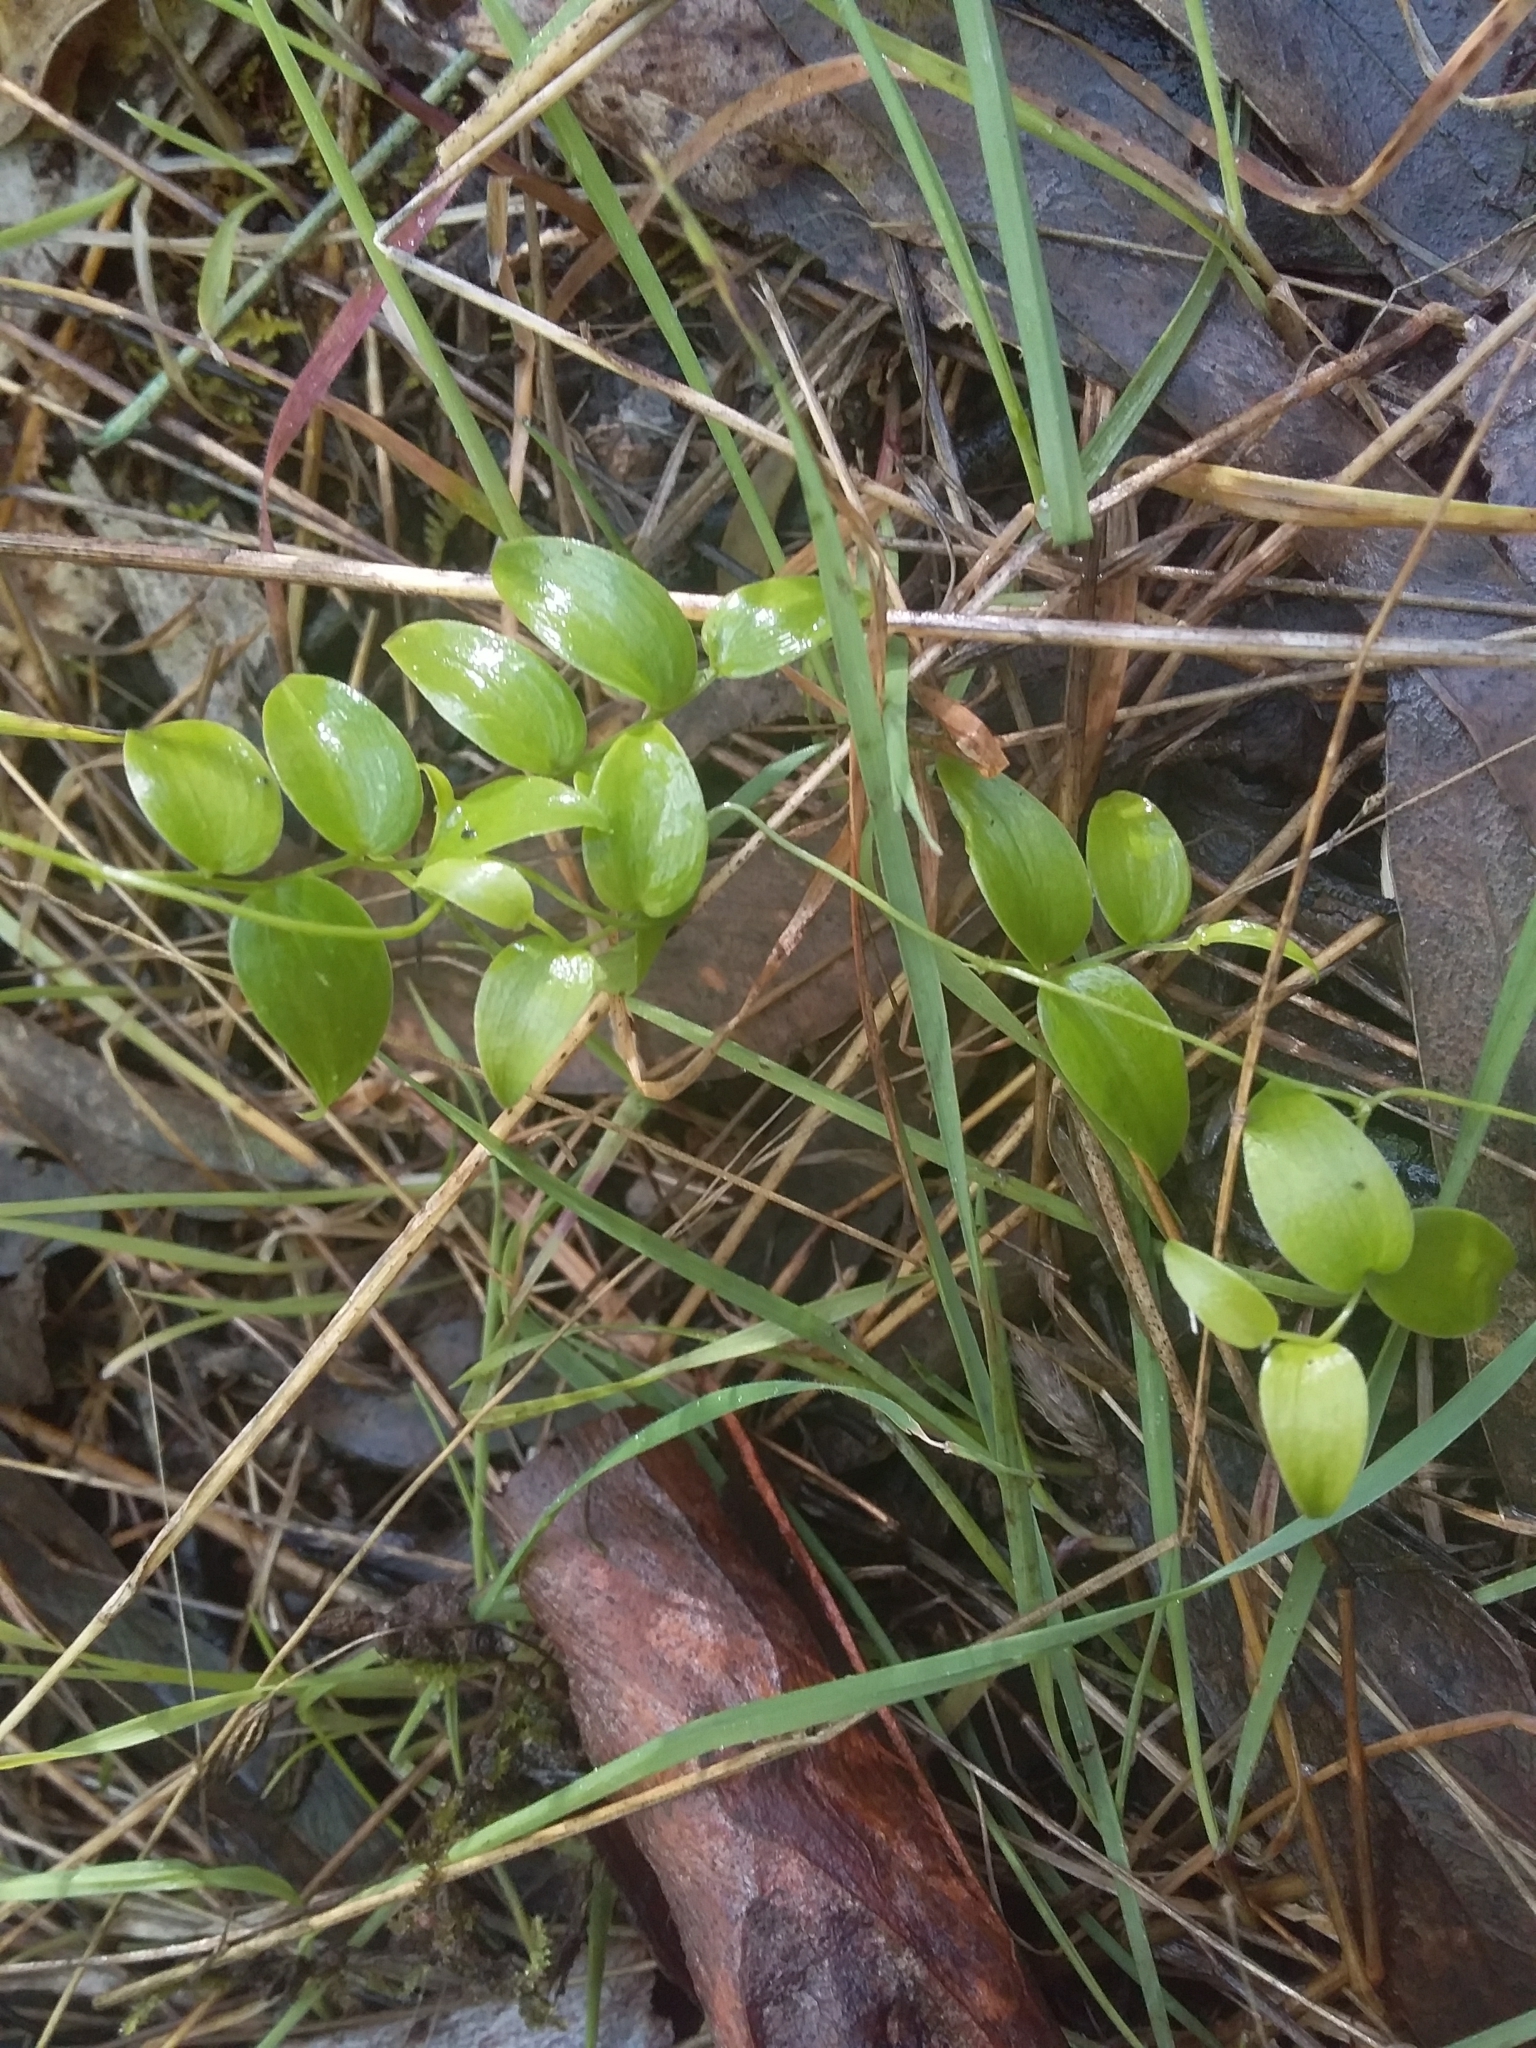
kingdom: Plantae
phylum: Tracheophyta
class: Liliopsida
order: Asparagales
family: Asparagaceae
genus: Asparagus
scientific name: Asparagus asparagoides
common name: African asparagus fern
